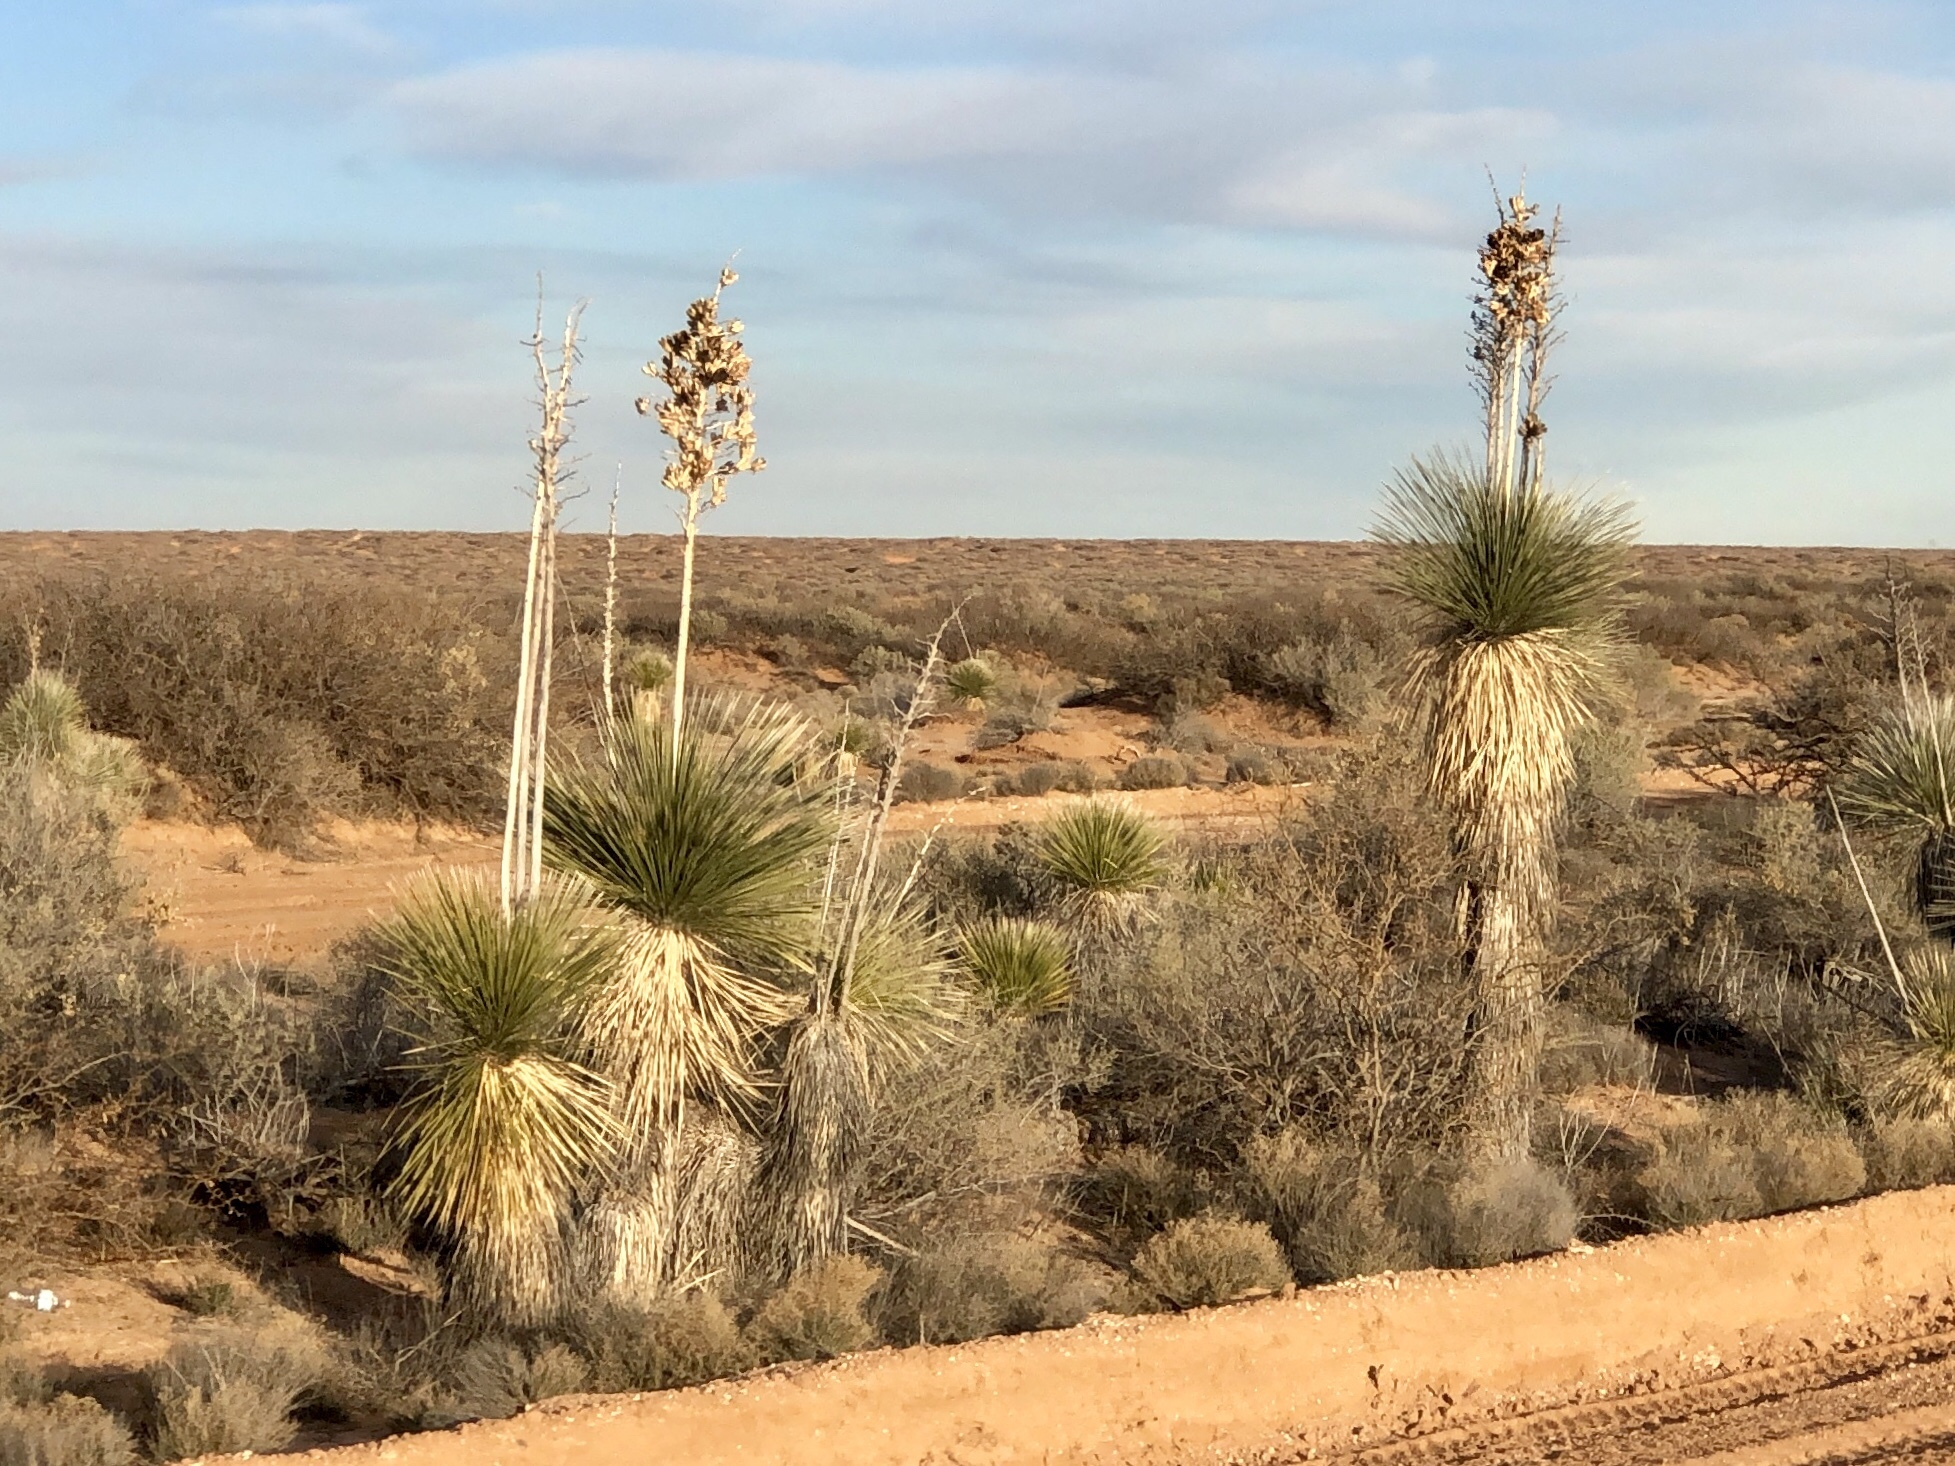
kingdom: Plantae
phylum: Tracheophyta
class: Liliopsida
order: Asparagales
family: Asparagaceae
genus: Yucca
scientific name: Yucca elata
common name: Palmella
